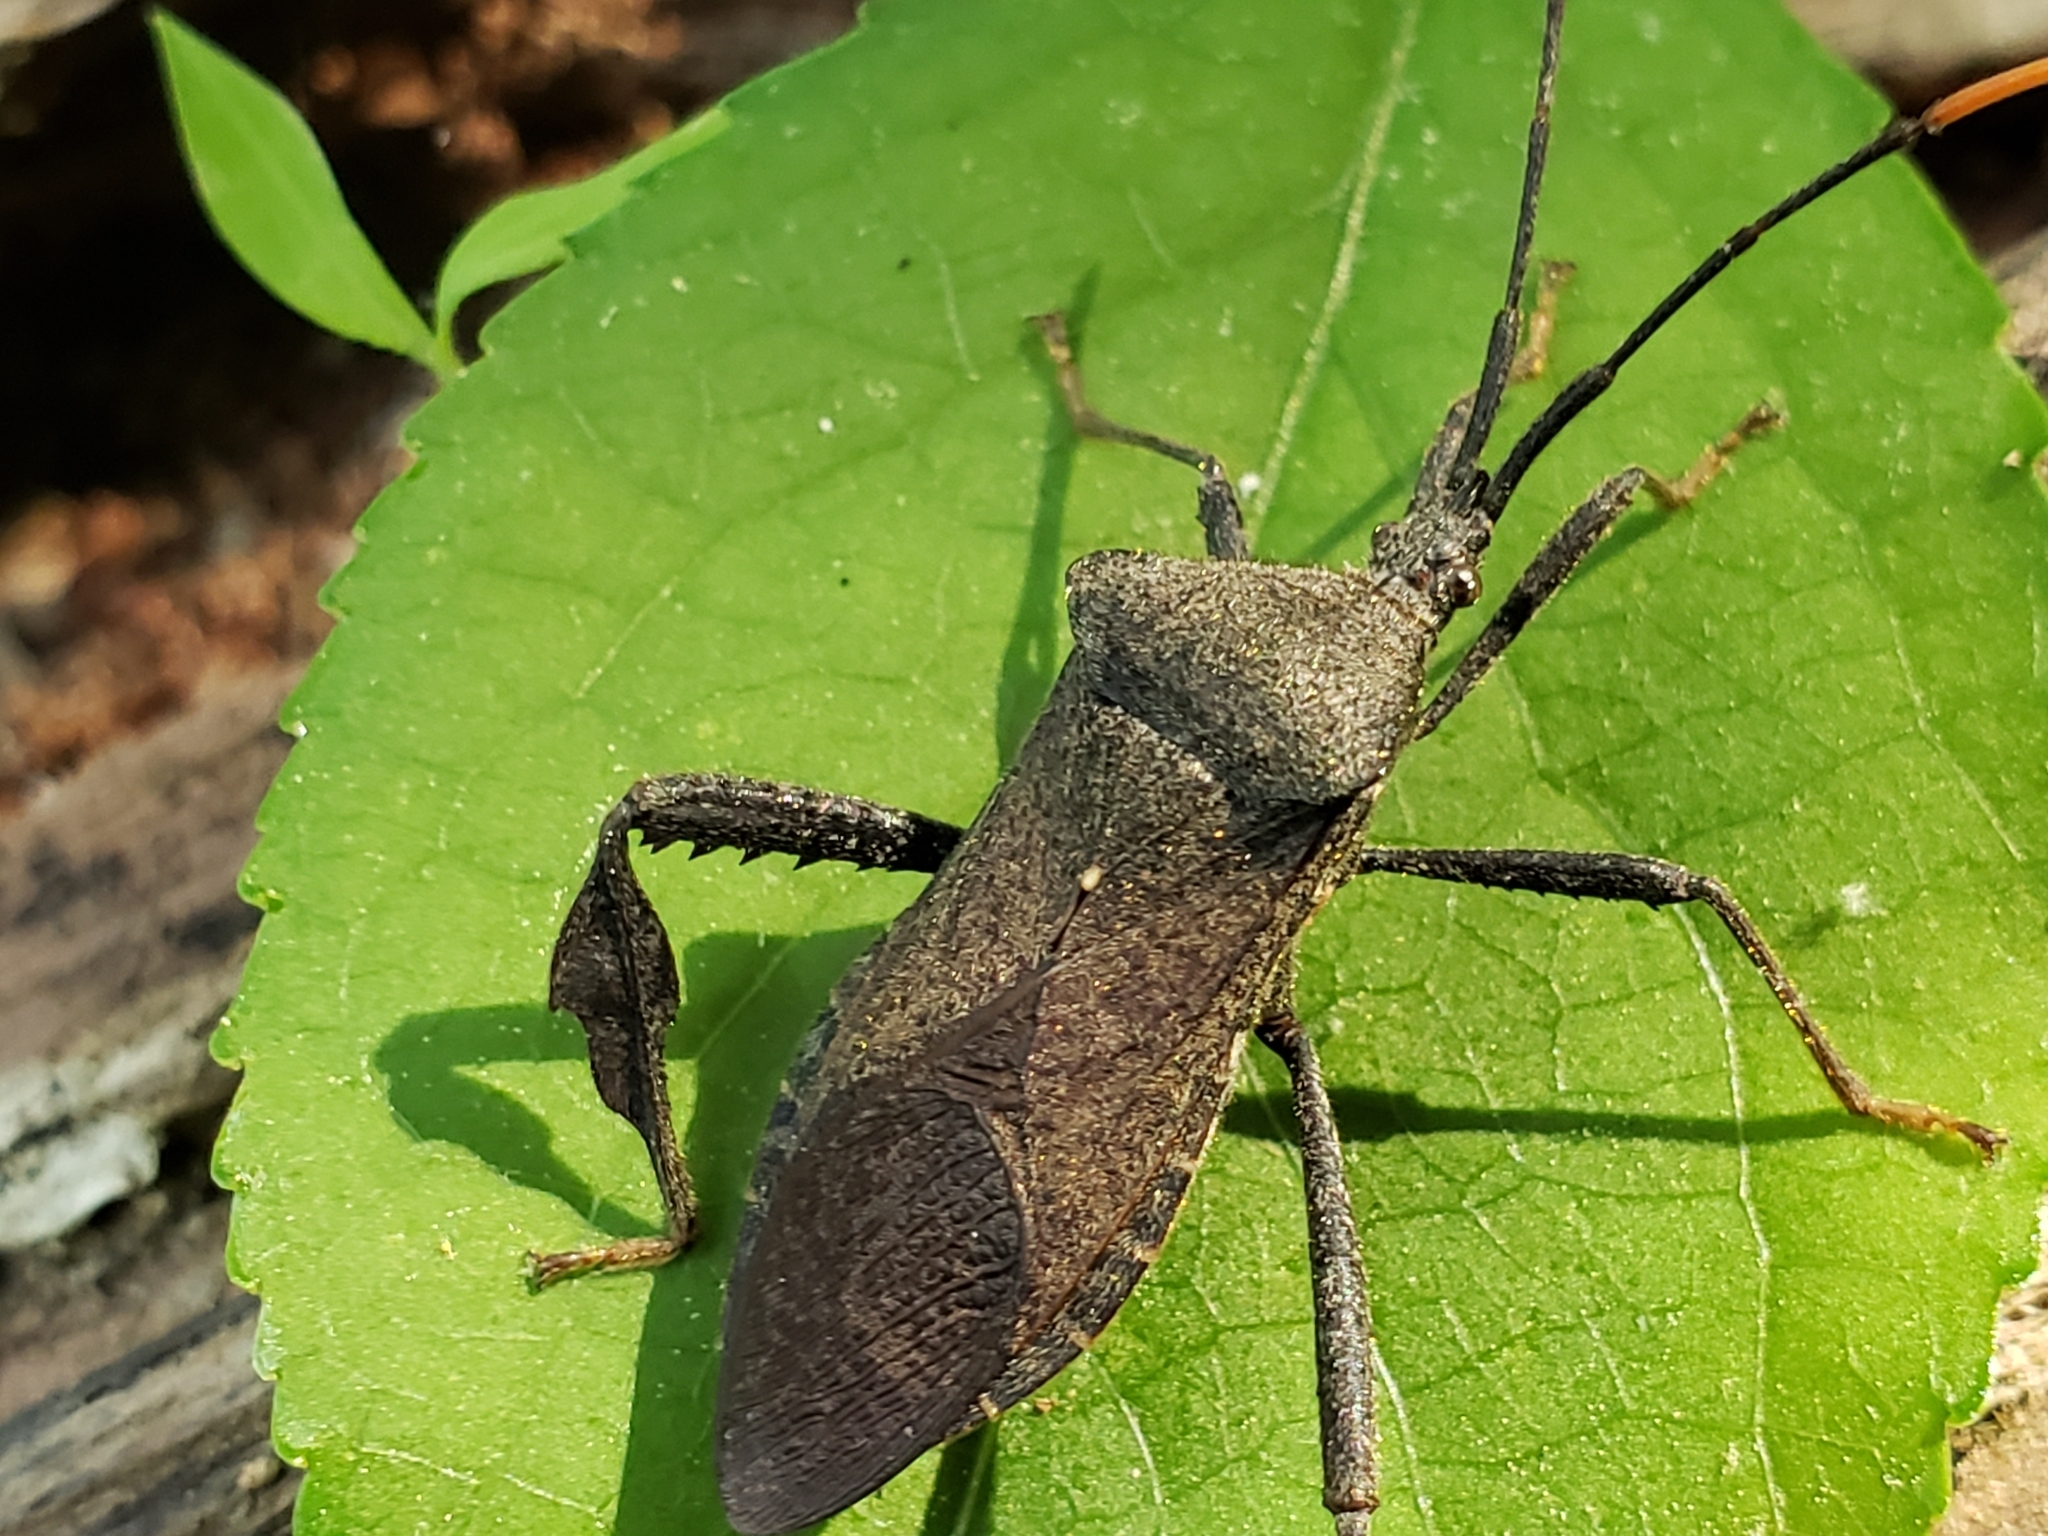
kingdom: Animalia
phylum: Arthropoda
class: Insecta
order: Hemiptera
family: Coreidae
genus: Acanthocephala
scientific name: Acanthocephala terminalis
